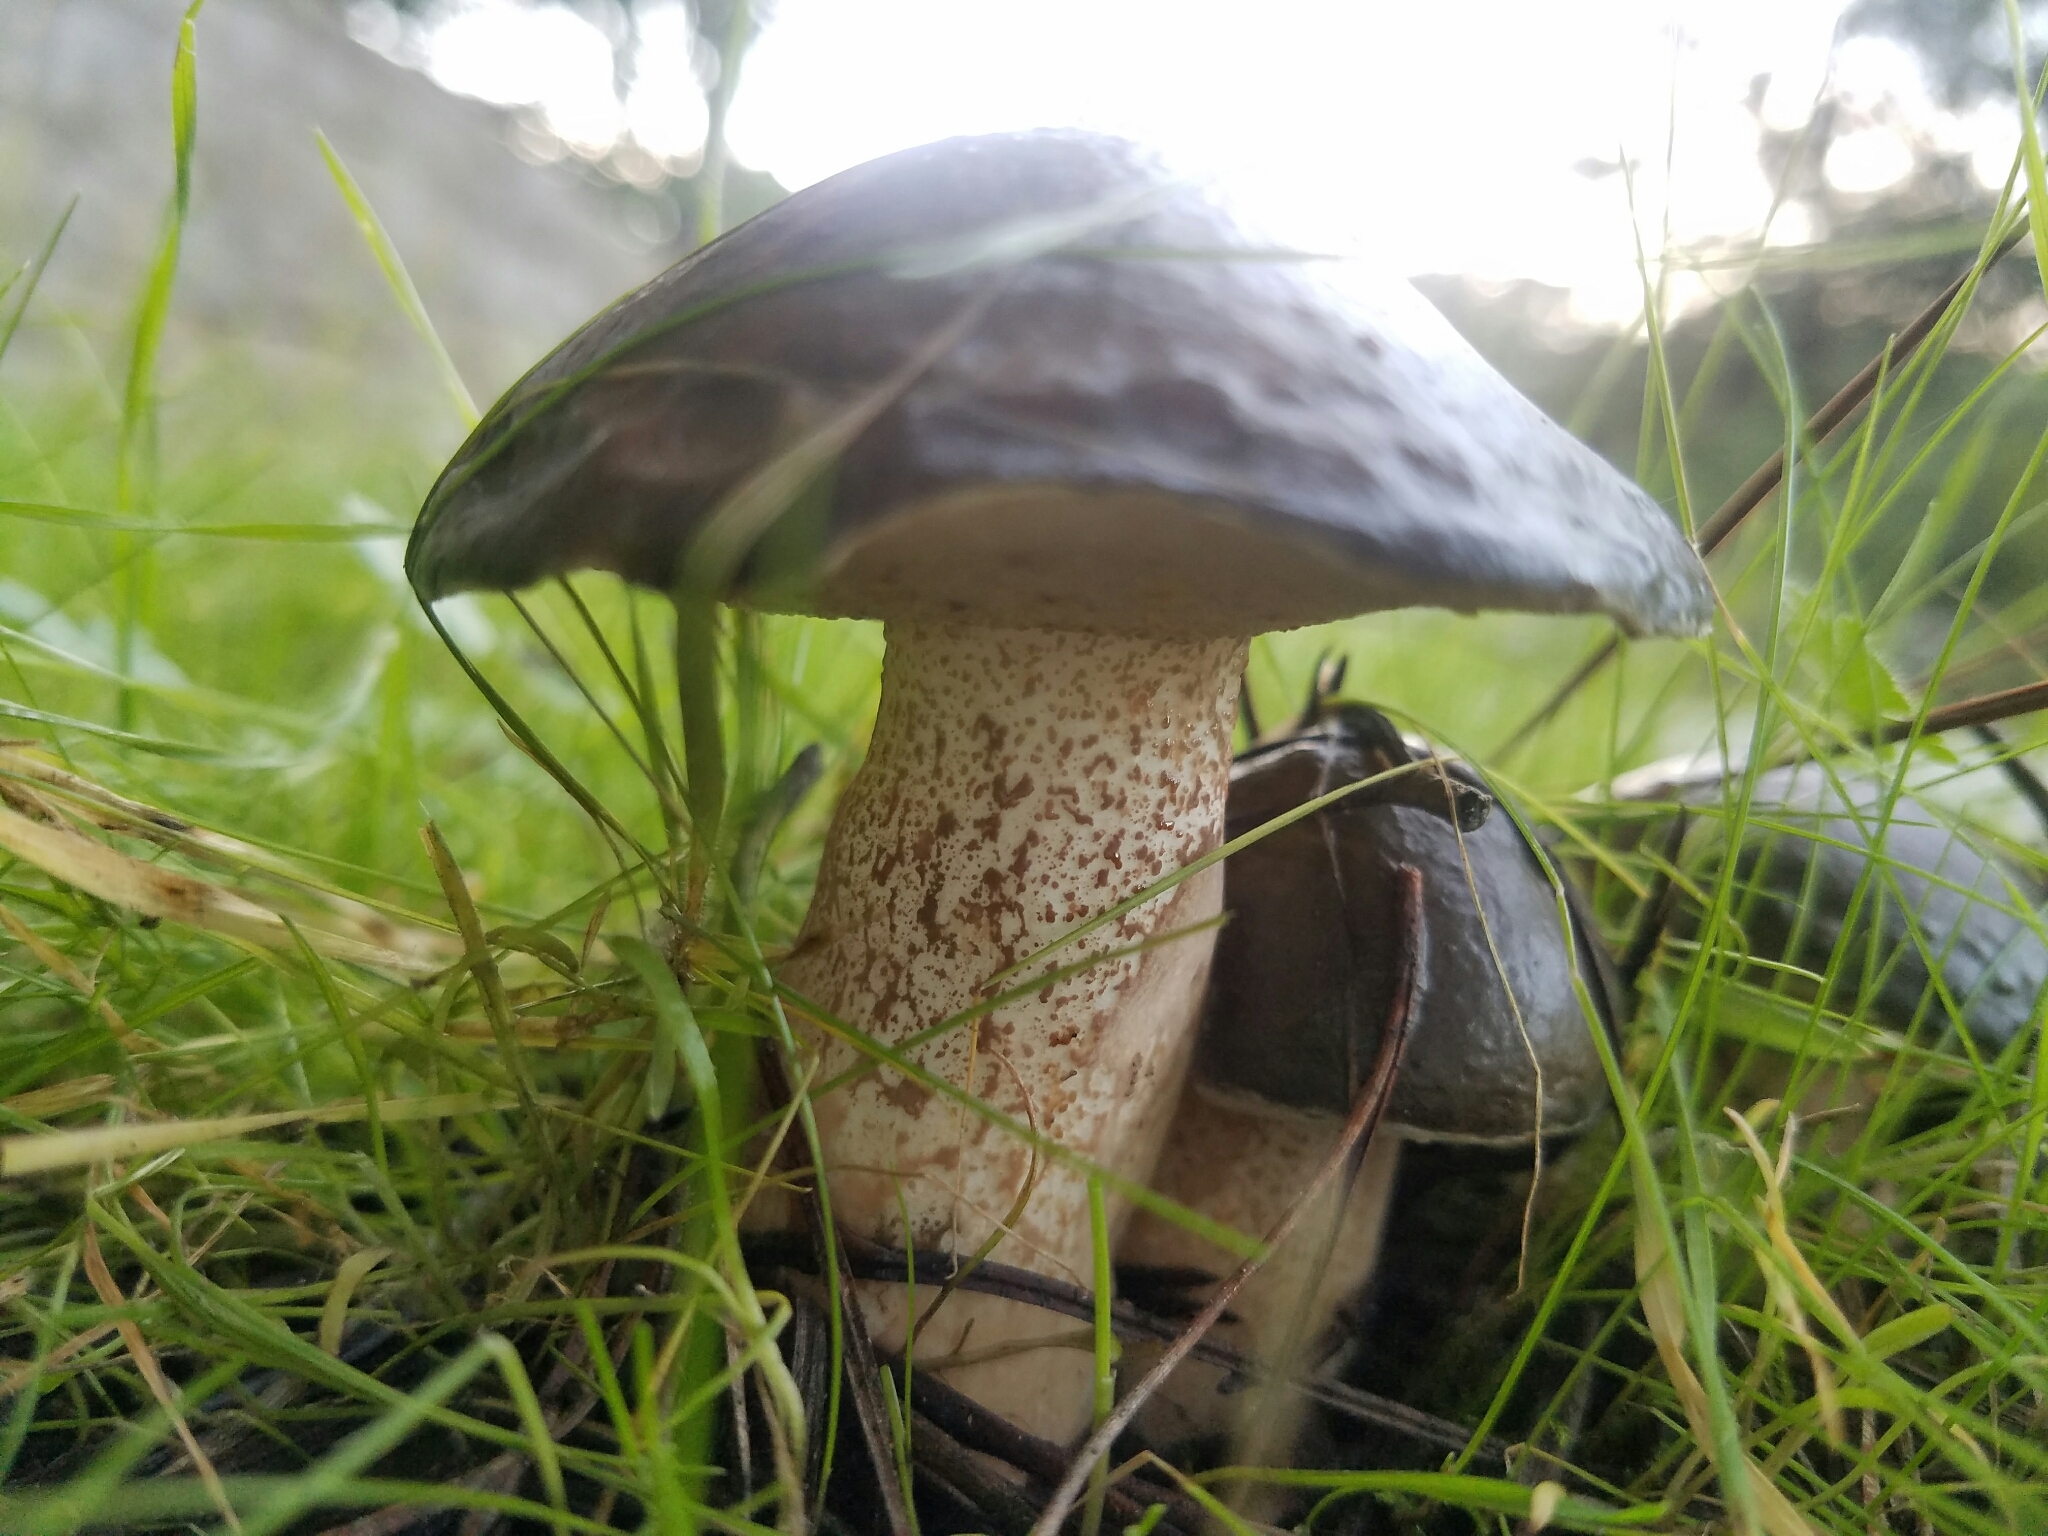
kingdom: Fungi
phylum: Basidiomycota
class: Agaricomycetes
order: Boletales
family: Suillaceae
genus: Suillus
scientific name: Suillus pungens
